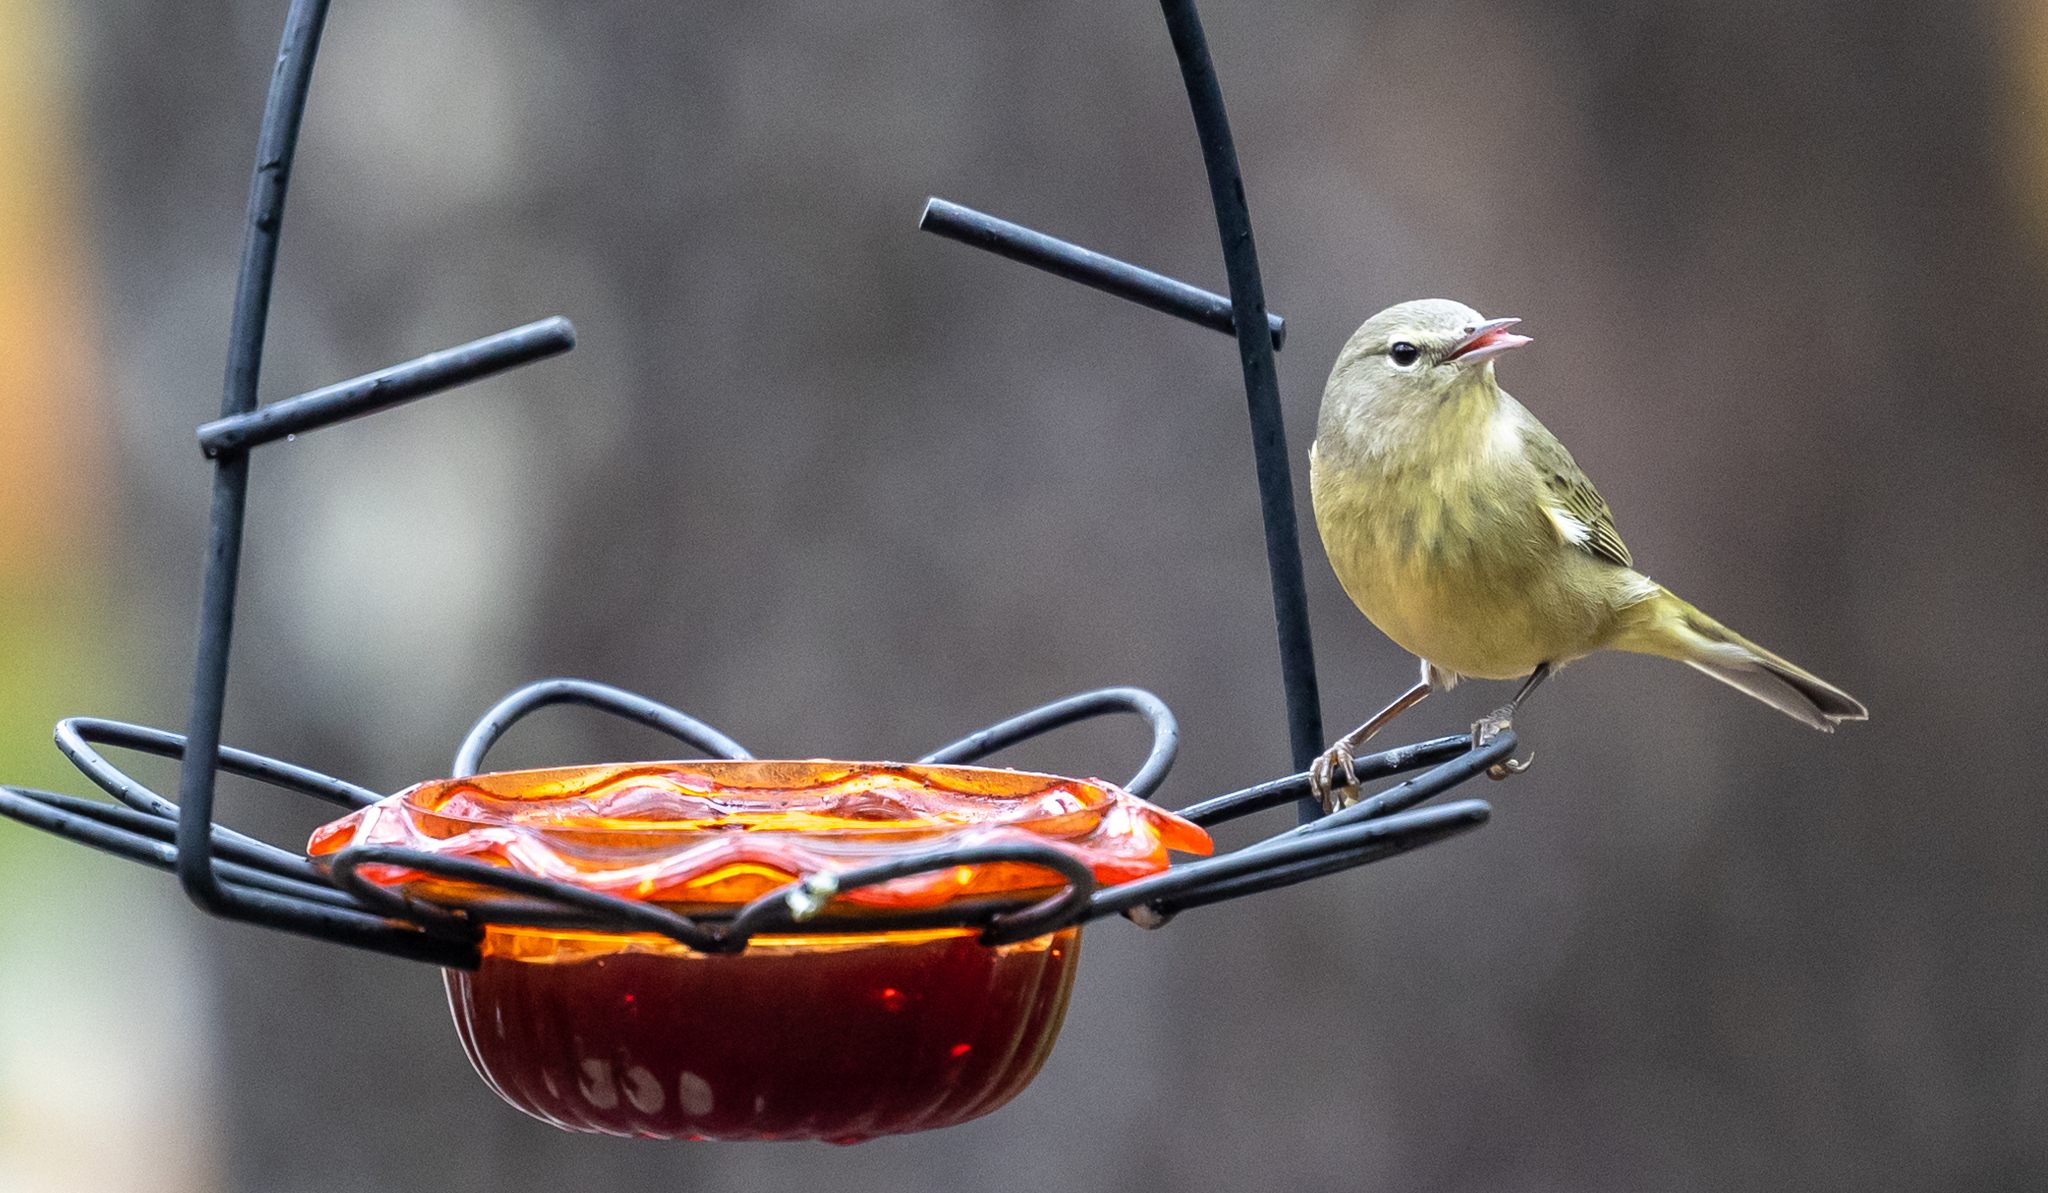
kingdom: Animalia
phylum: Chordata
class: Aves
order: Passeriformes
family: Parulidae
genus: Leiothlypis
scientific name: Leiothlypis celata
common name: Orange-crowned warbler
